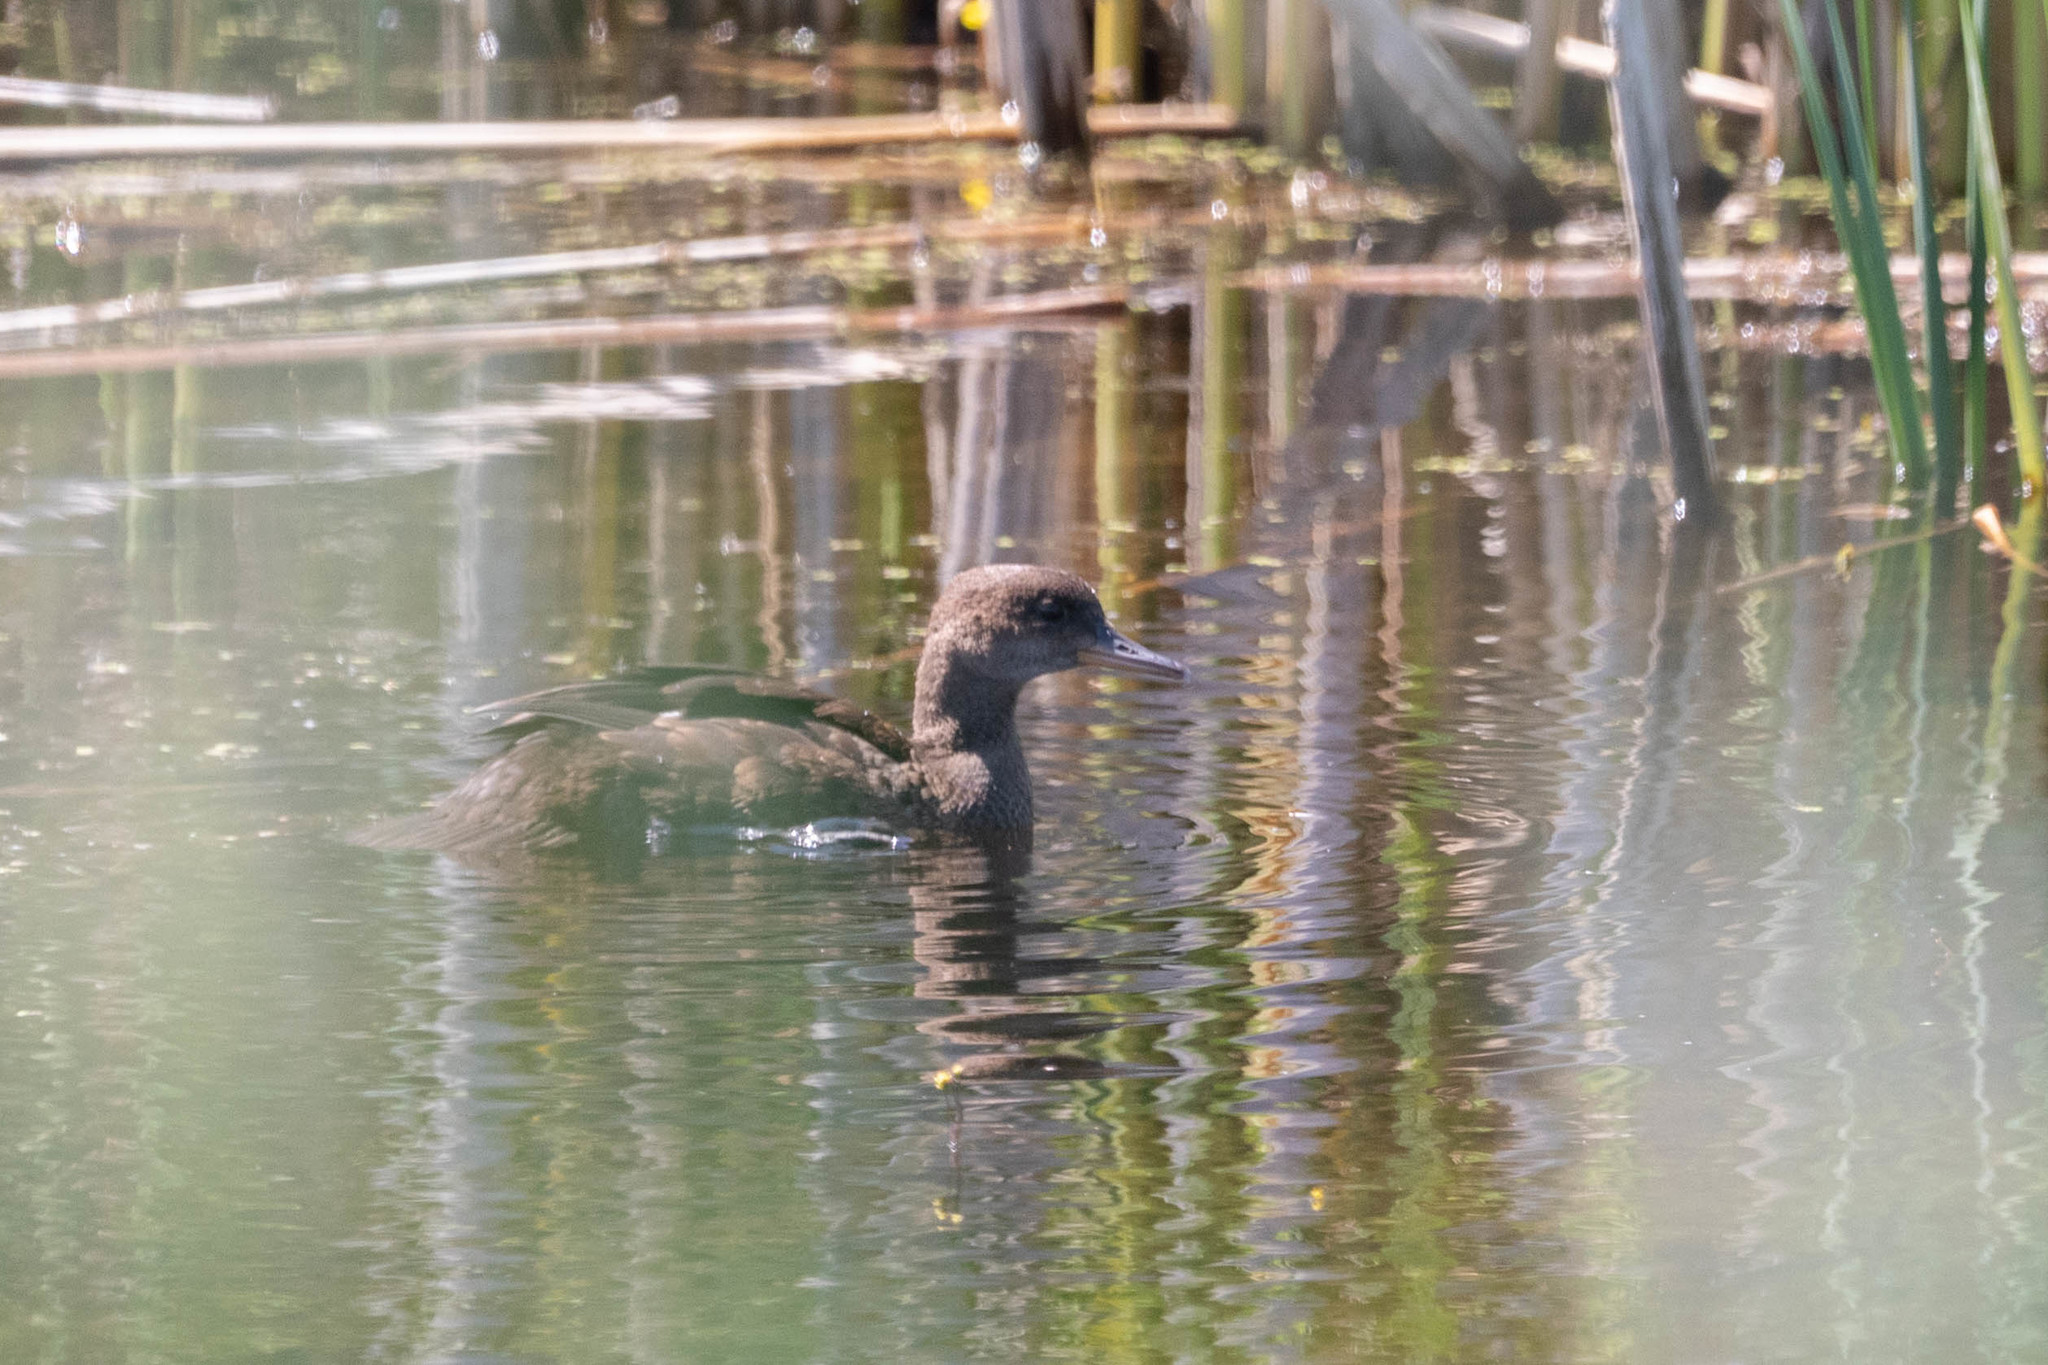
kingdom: Animalia
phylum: Chordata
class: Aves
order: Anseriformes
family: Anatidae
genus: Lophodytes
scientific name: Lophodytes cucullatus
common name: Hooded merganser
